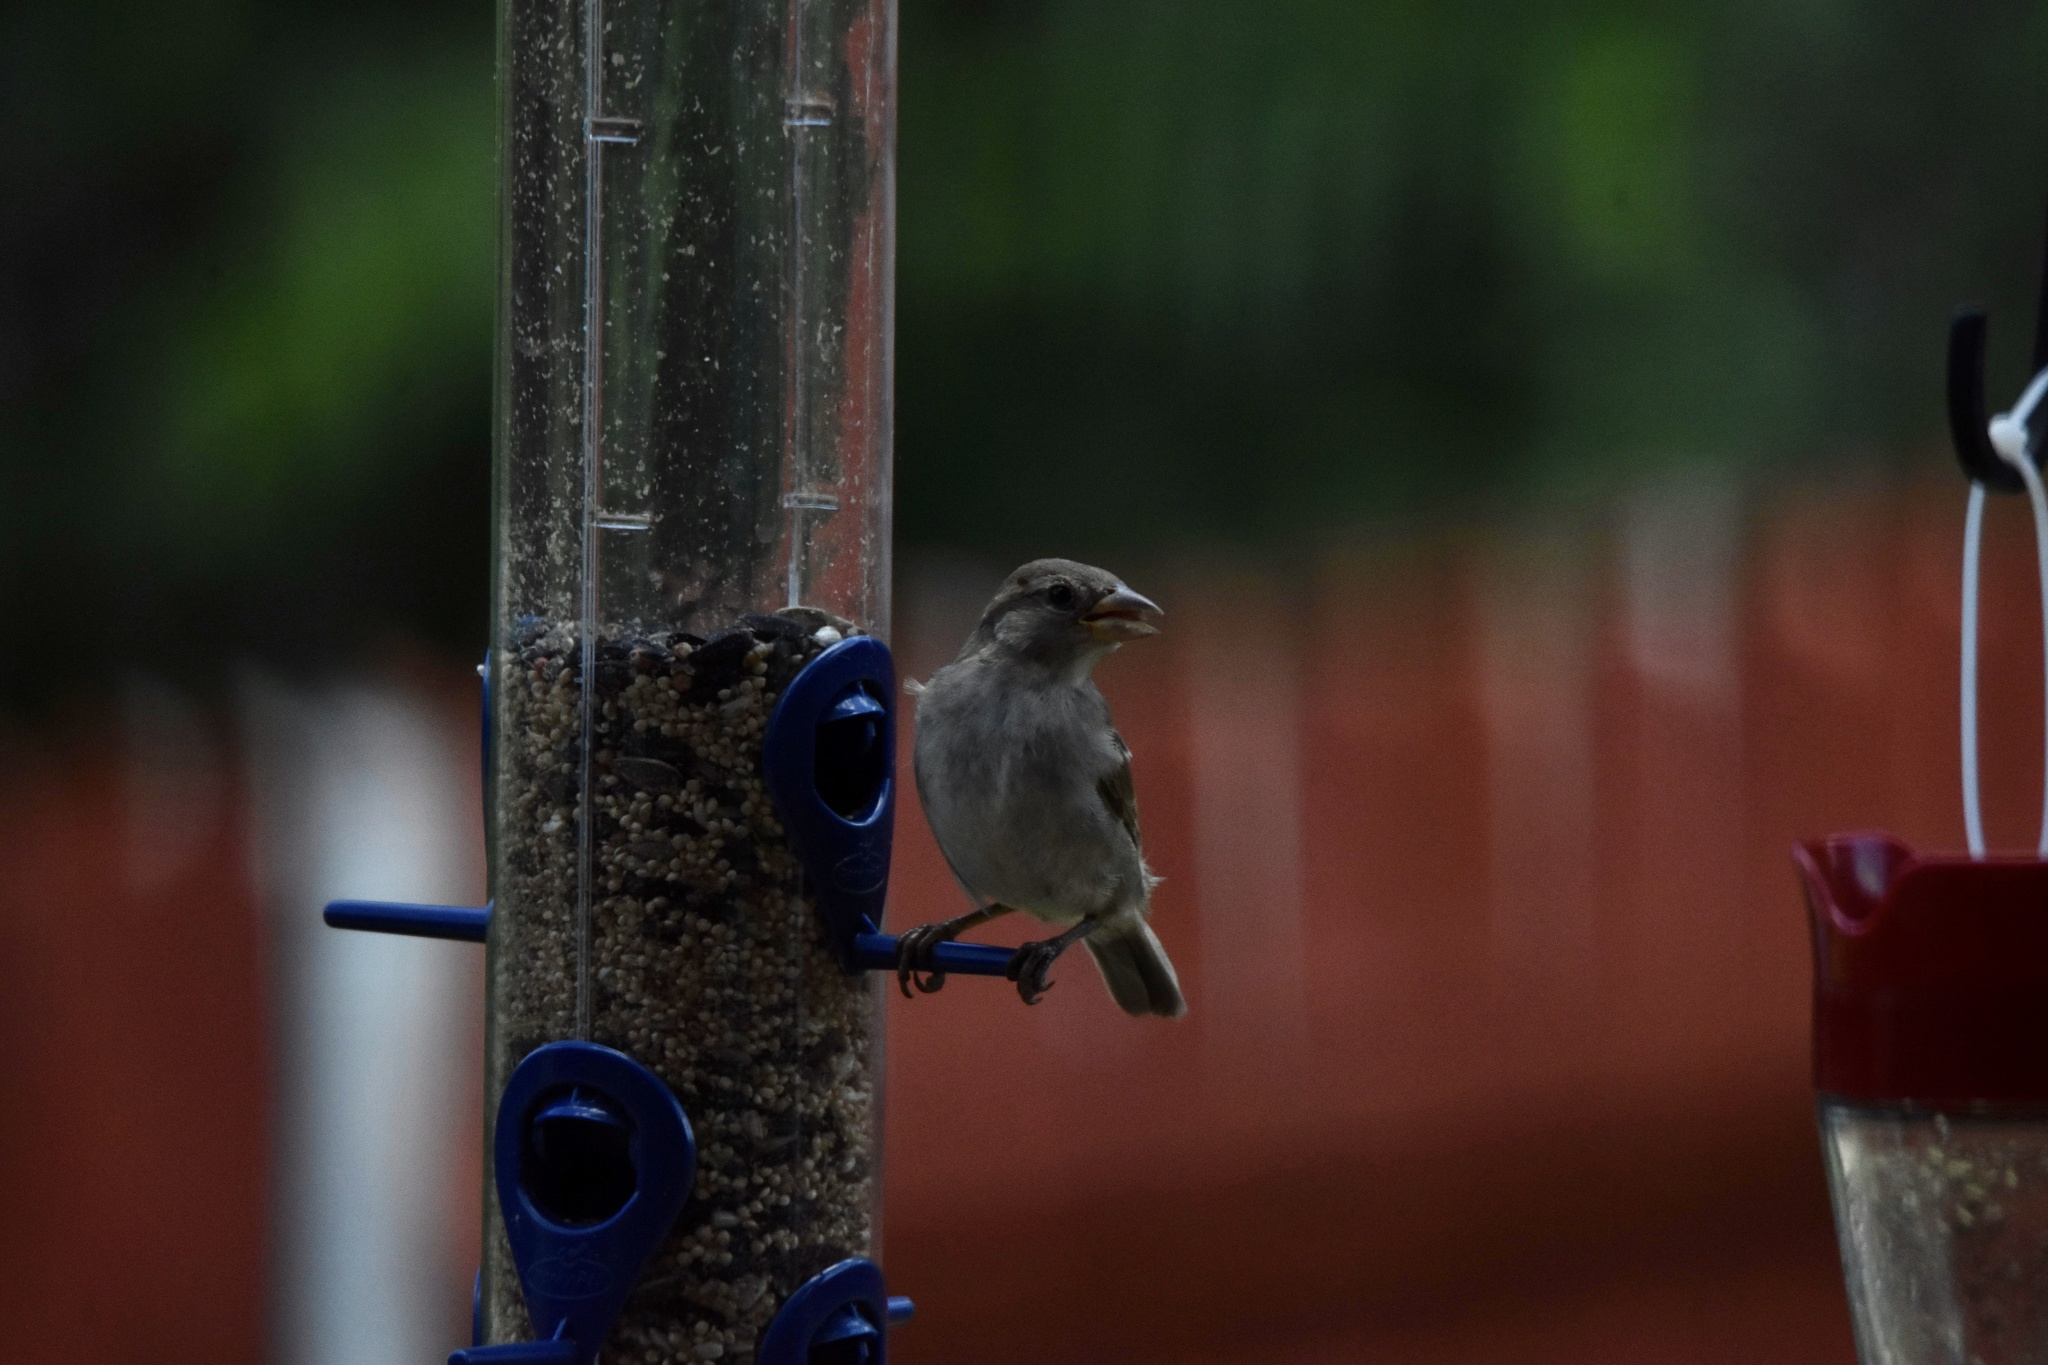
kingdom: Animalia
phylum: Chordata
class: Aves
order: Passeriformes
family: Passeridae
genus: Passer
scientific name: Passer domesticus
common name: House sparrow
